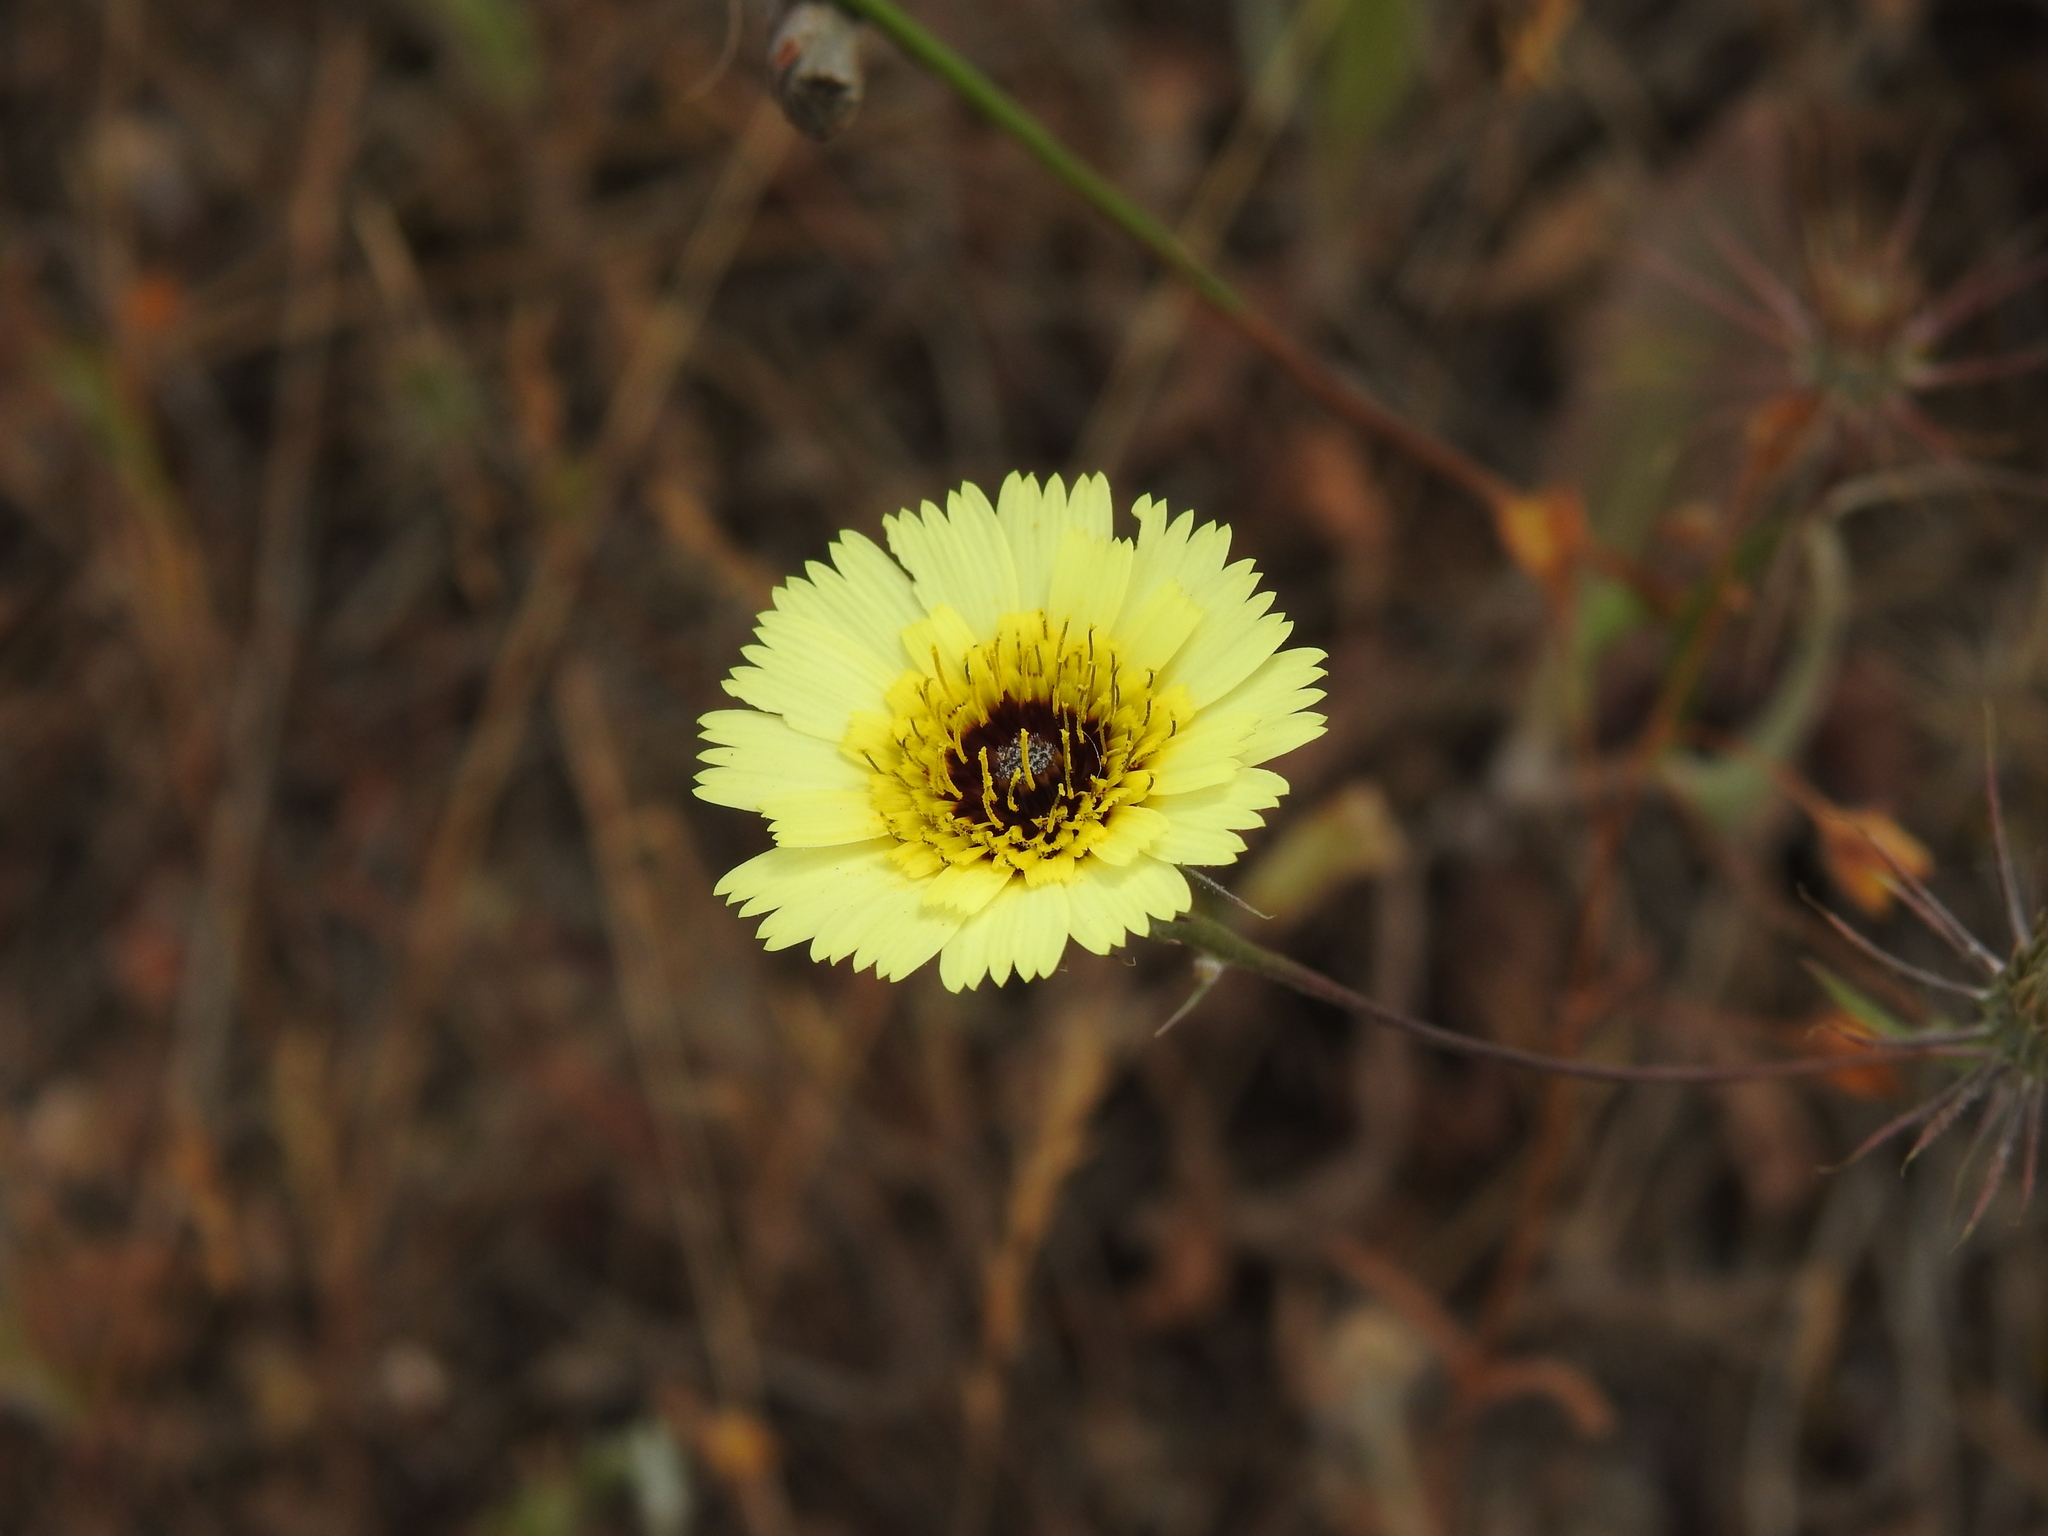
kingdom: Plantae
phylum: Tracheophyta
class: Magnoliopsida
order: Asterales
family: Asteraceae
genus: Tolpis
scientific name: Tolpis barbata
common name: Yellow hawkweed
